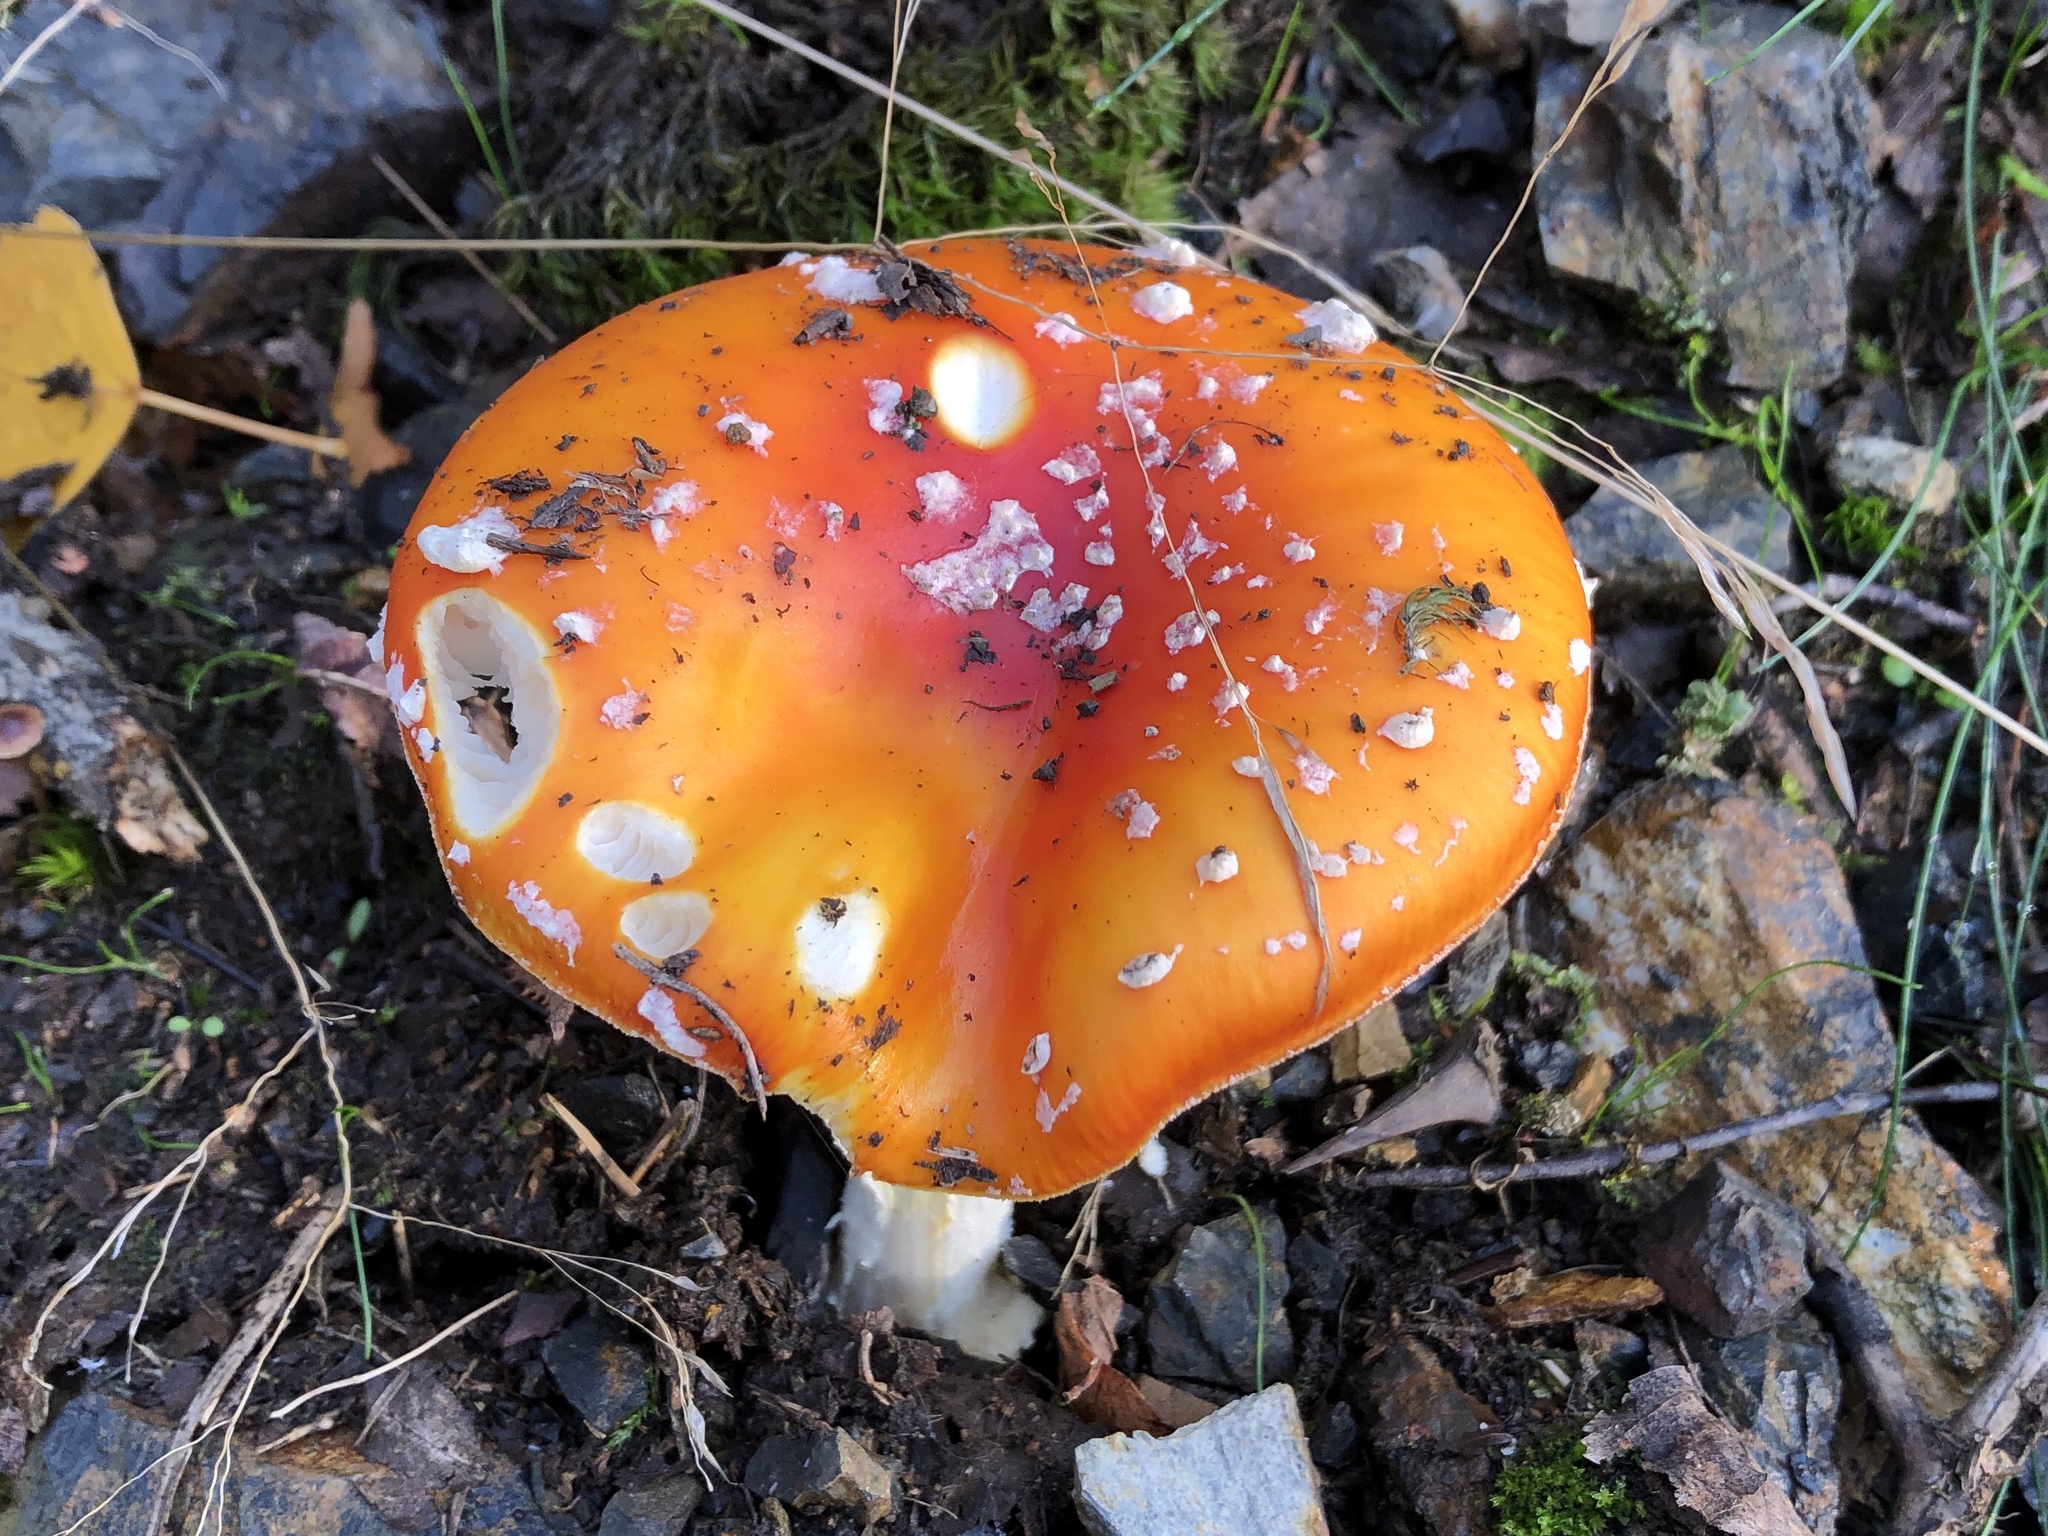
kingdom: Fungi
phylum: Basidiomycota
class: Agaricomycetes
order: Agaricales
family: Amanitaceae
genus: Amanita
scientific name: Amanita muscaria
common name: Fly agaric
